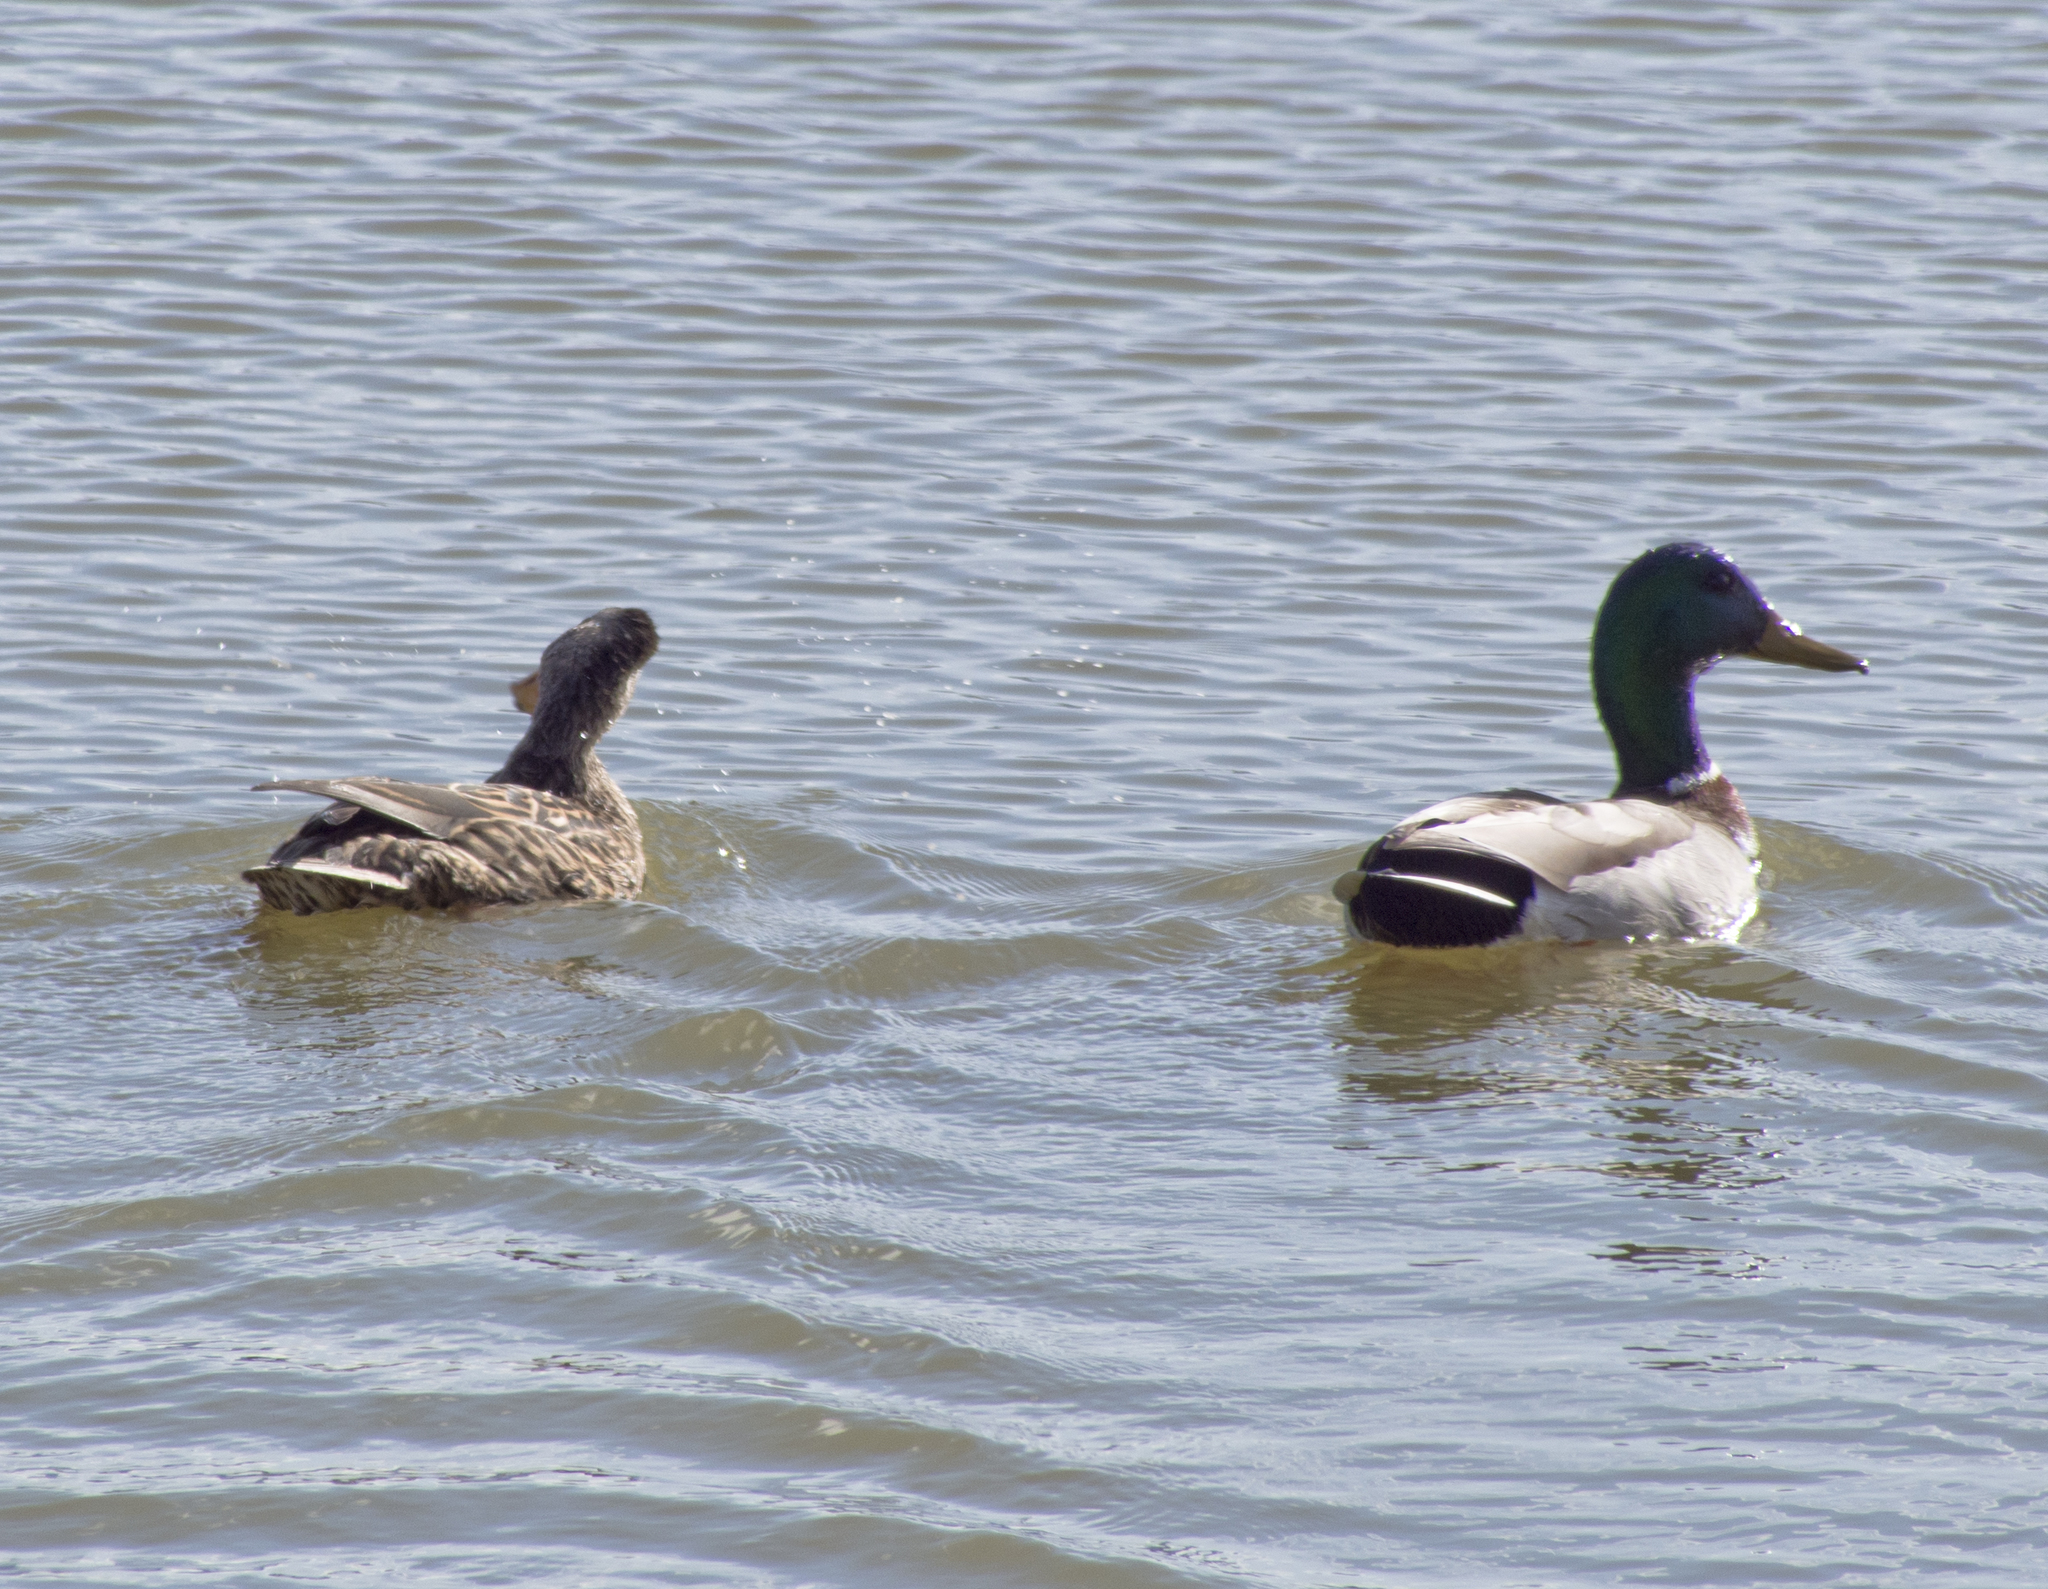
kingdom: Animalia
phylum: Chordata
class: Aves
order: Anseriformes
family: Anatidae
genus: Anas
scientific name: Anas platyrhynchos
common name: Mallard
